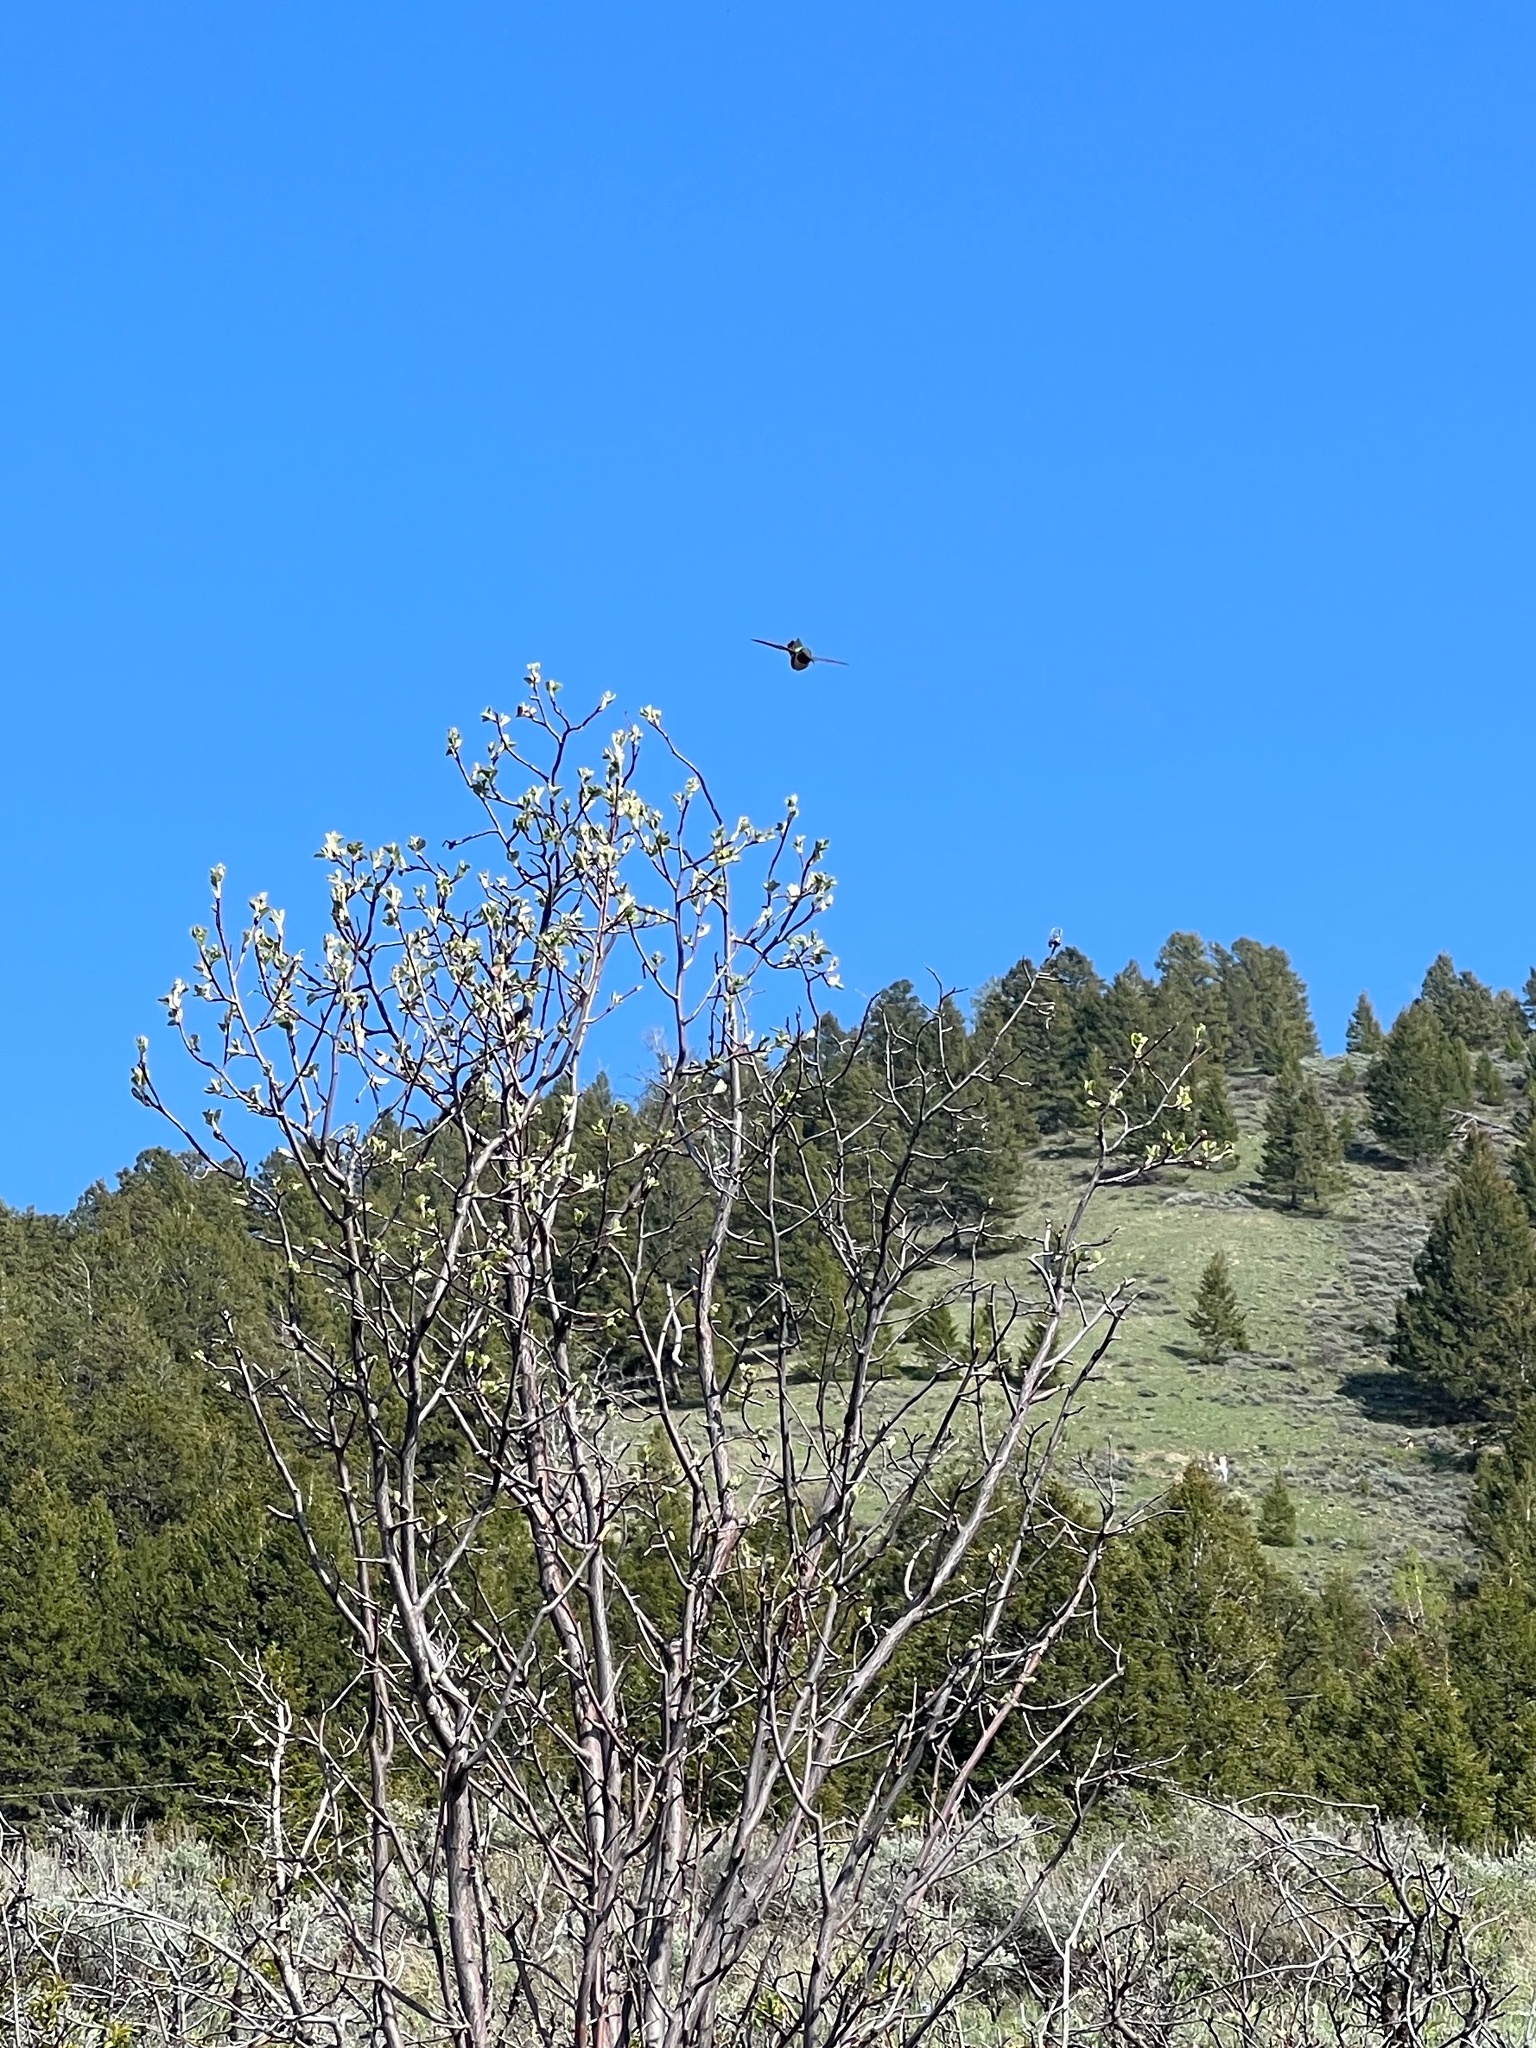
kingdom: Animalia
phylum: Chordata
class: Aves
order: Apodiformes
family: Trochilidae
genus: Selasphorus
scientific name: Selasphorus platycercus
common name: Broad-tailed hummingbird
